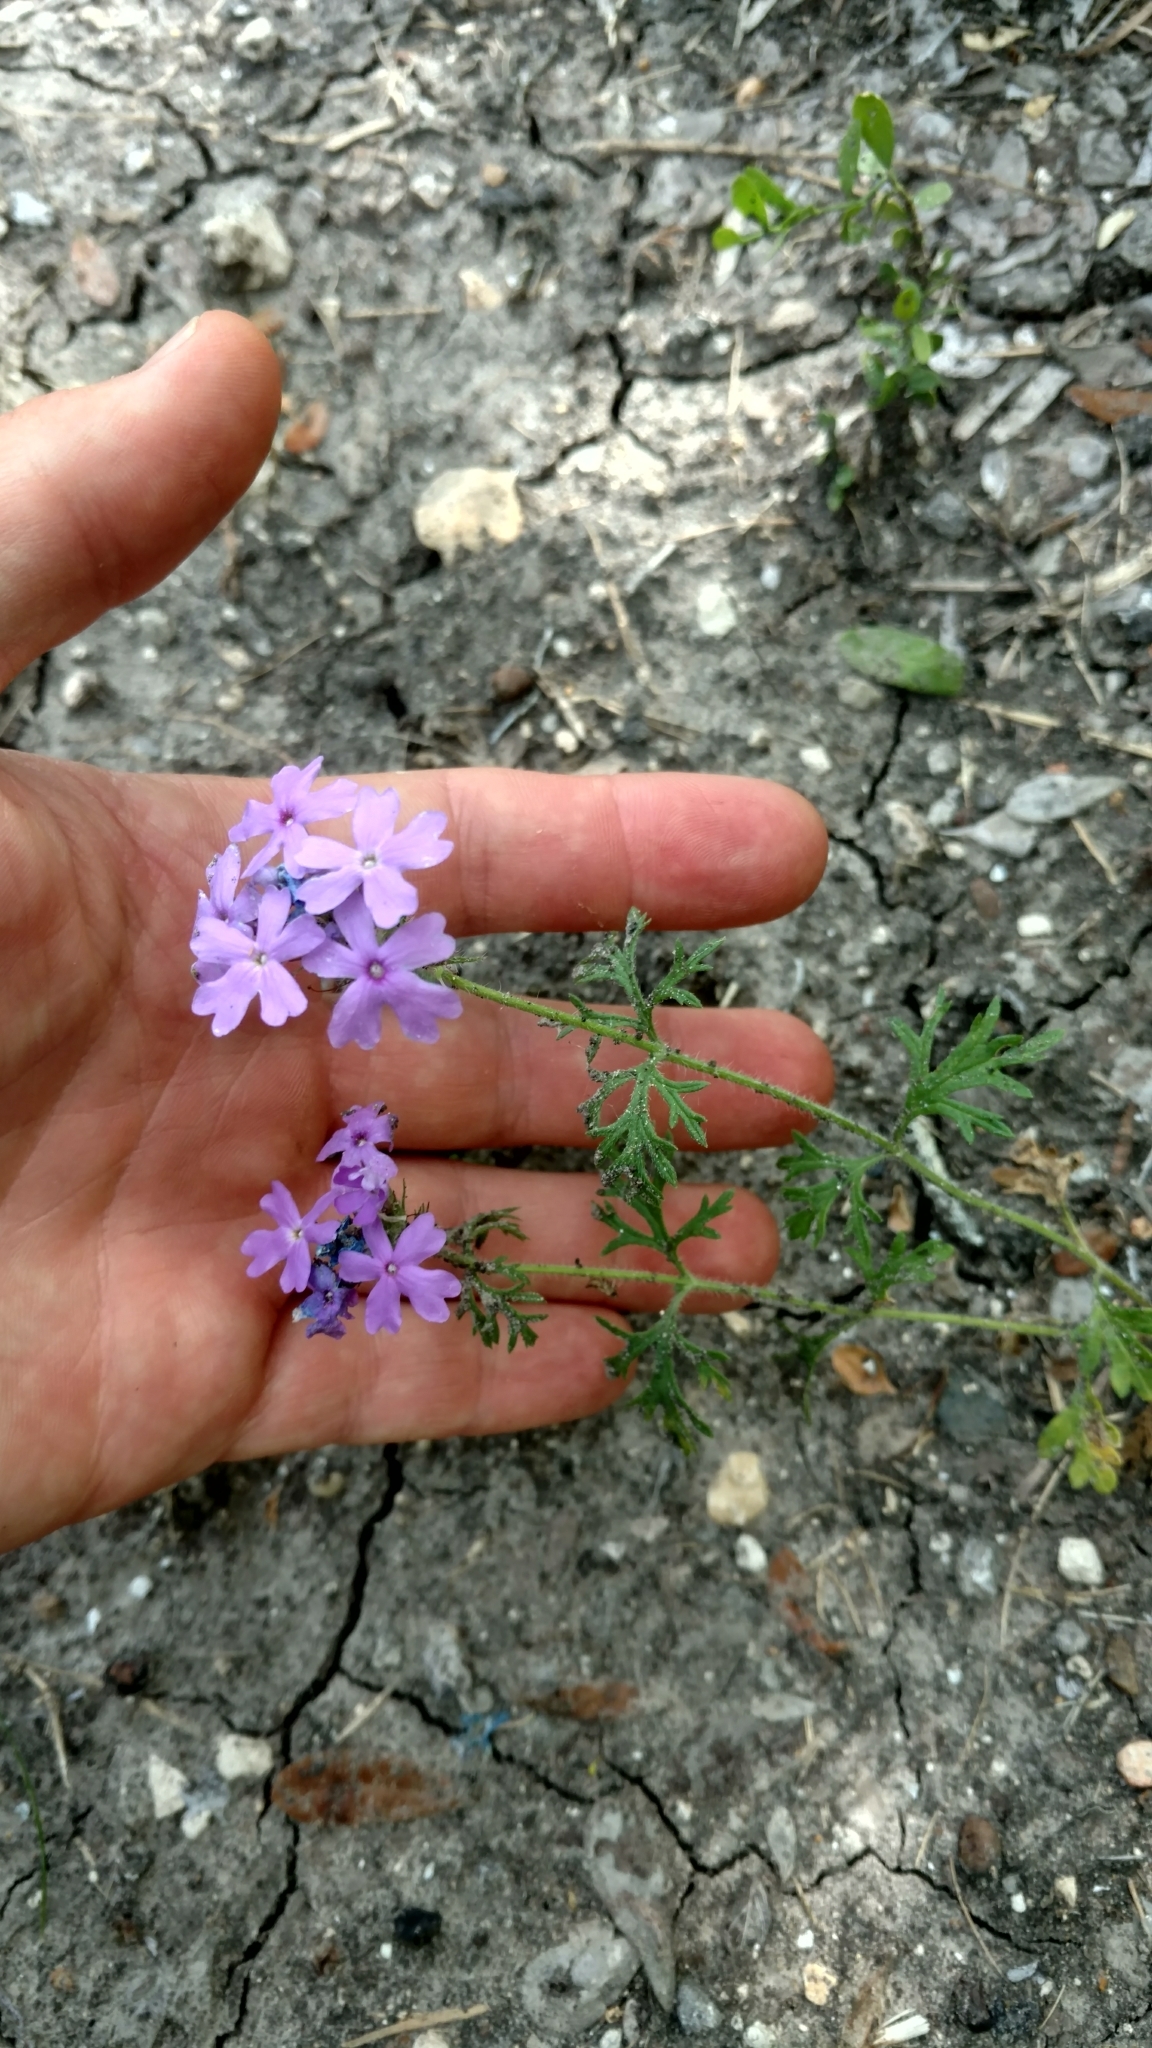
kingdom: Plantae
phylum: Tracheophyta
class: Magnoliopsida
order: Lamiales
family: Verbenaceae
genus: Verbena
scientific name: Verbena bipinnatifida
